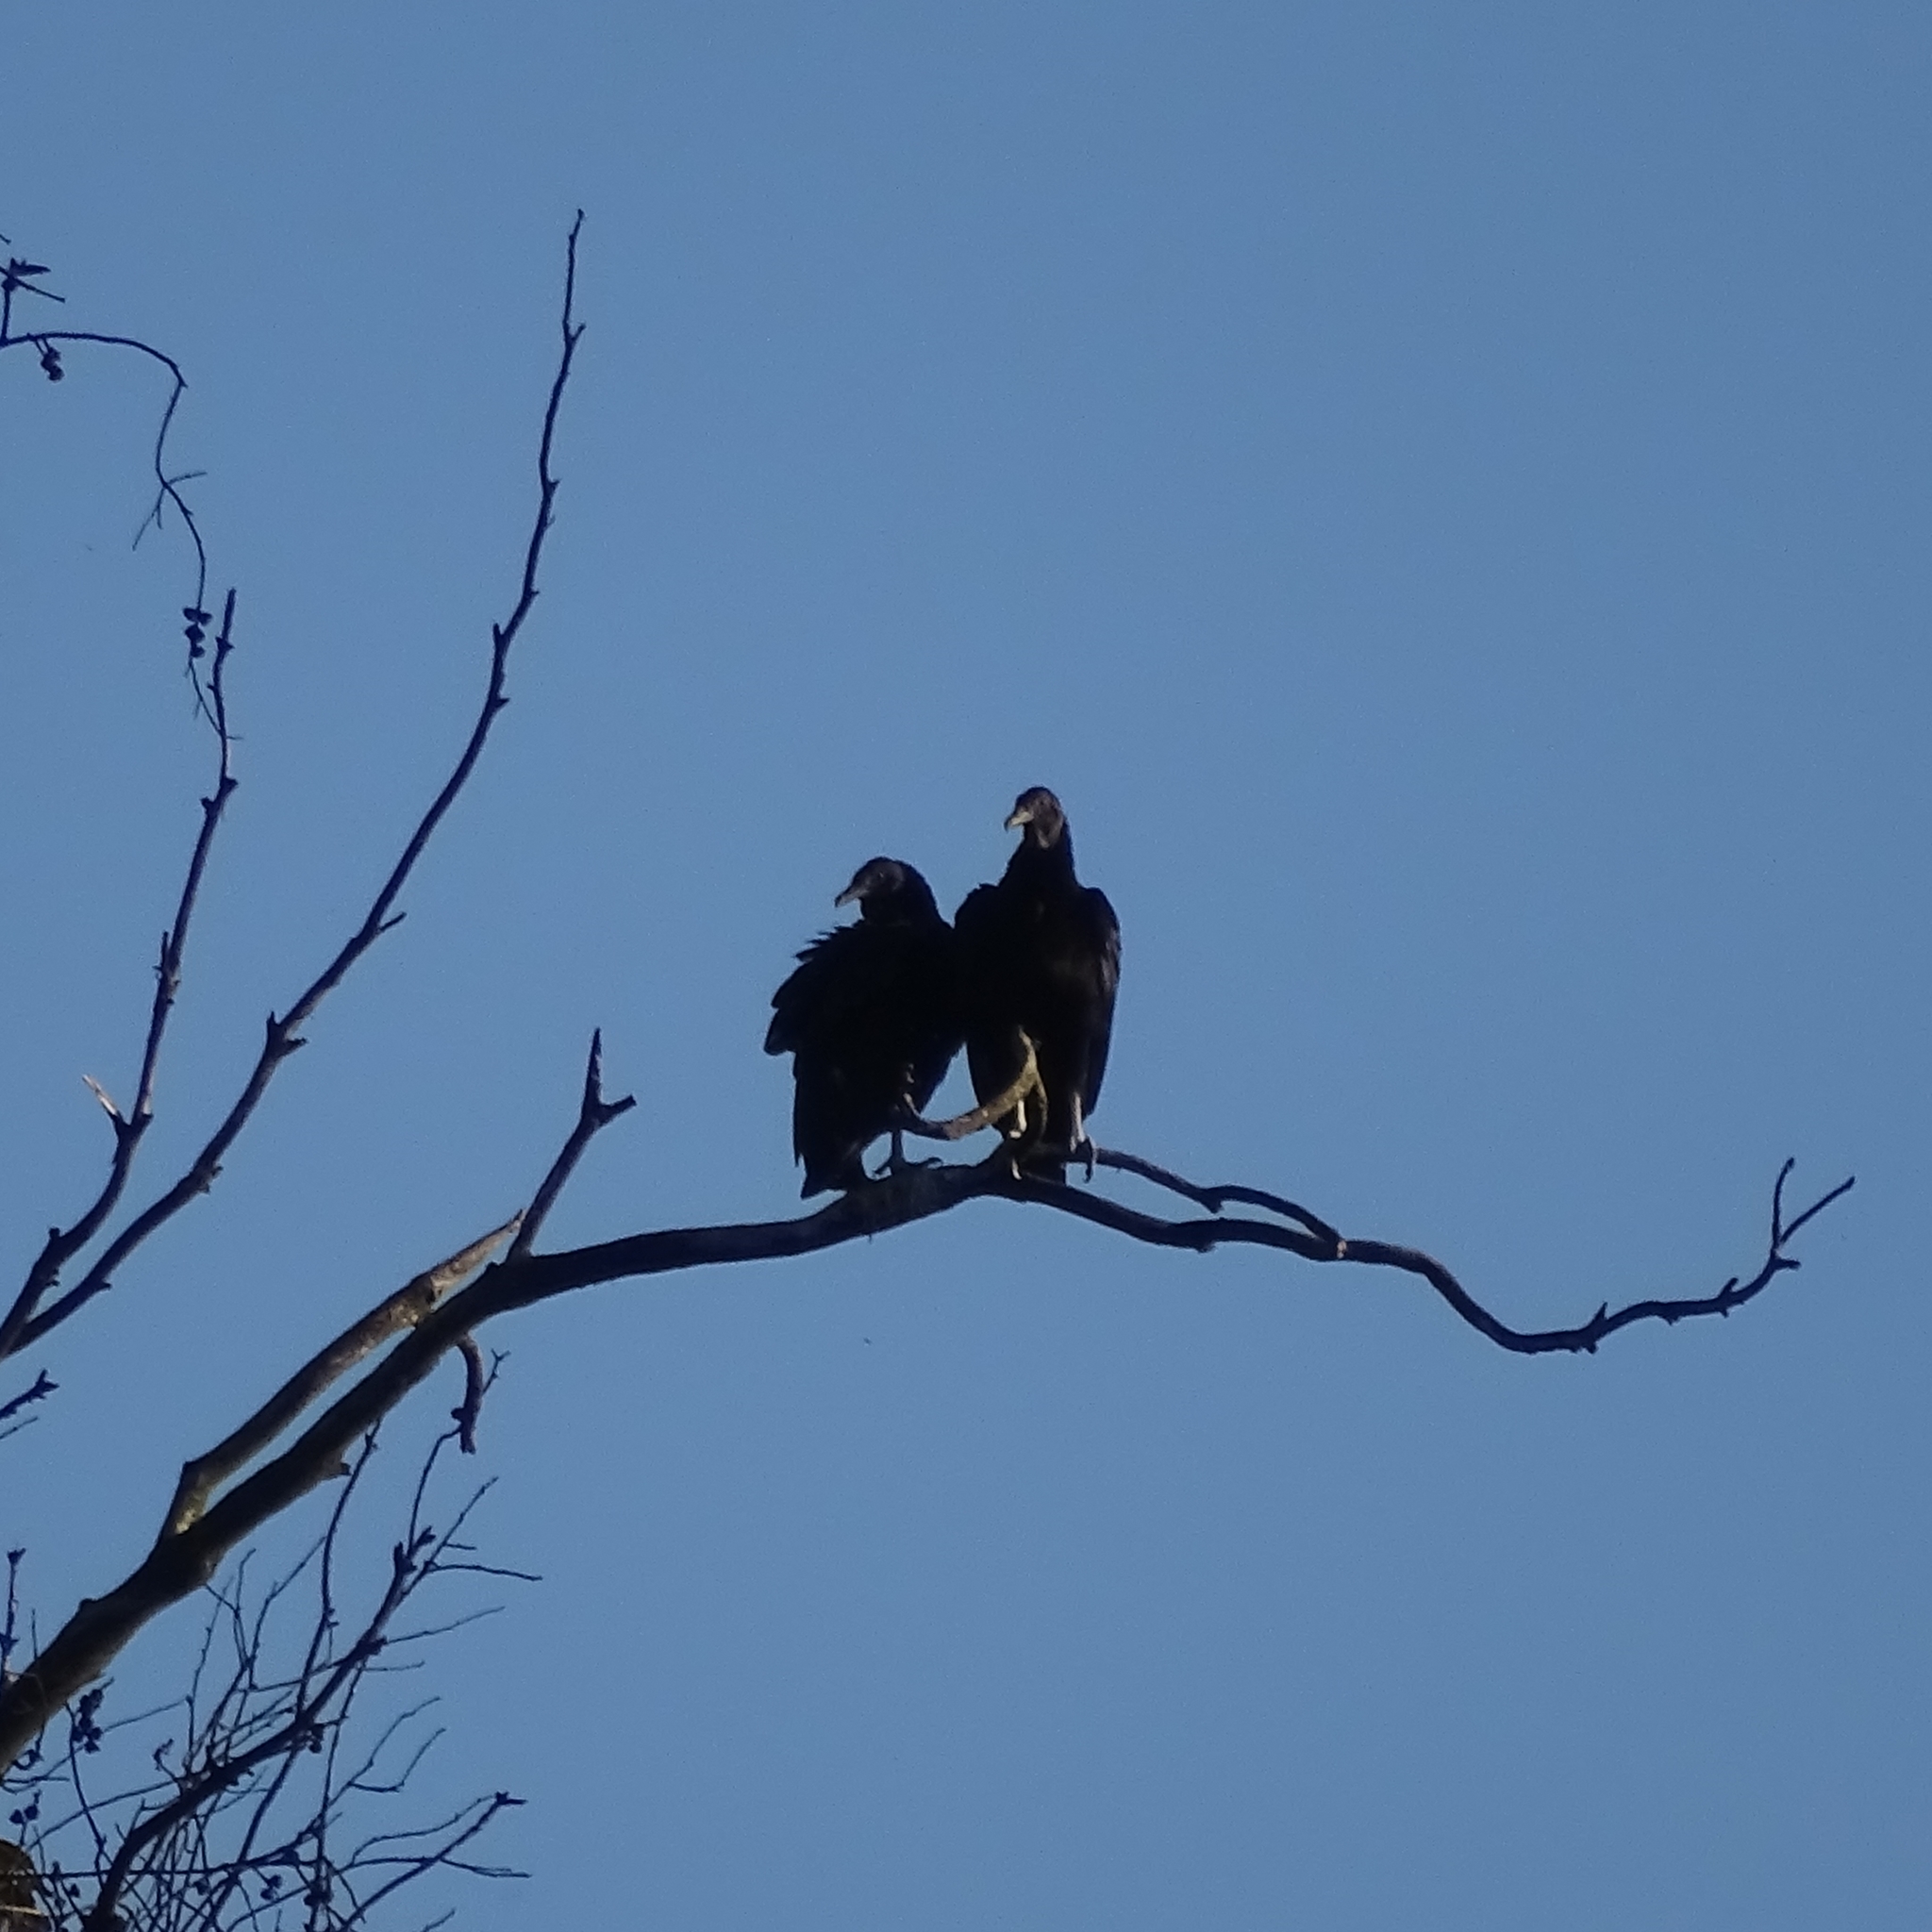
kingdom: Animalia
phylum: Chordata
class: Aves
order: Accipitriformes
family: Cathartidae
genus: Coragyps
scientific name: Coragyps atratus
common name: Black vulture
